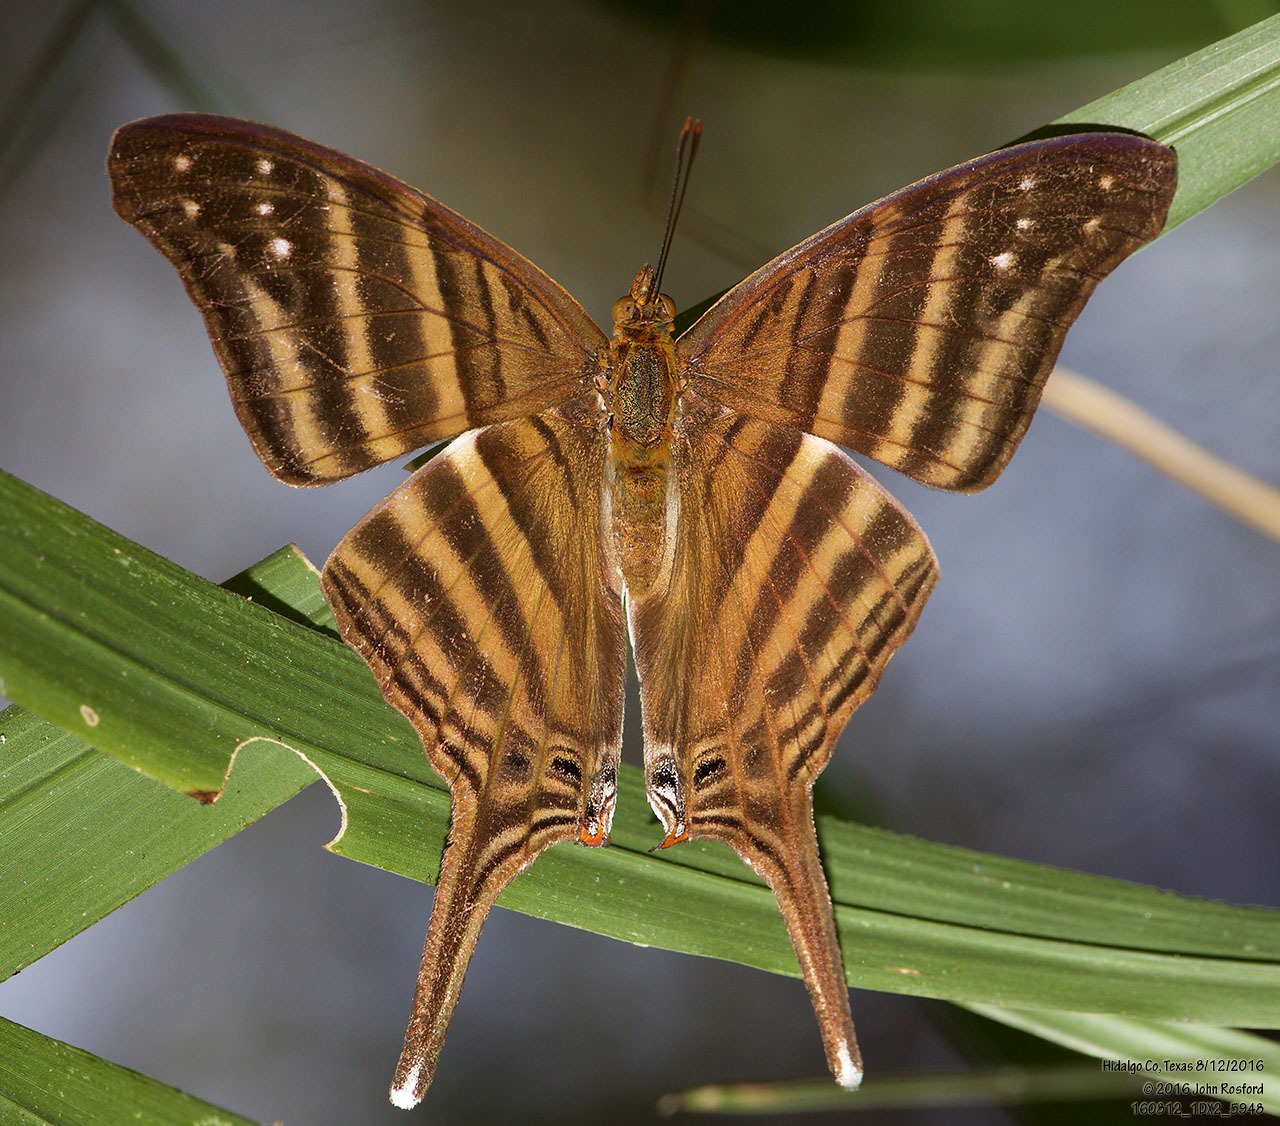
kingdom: Animalia
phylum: Arthropoda
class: Insecta
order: Lepidoptera
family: Nymphalidae
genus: Marpesia
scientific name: Marpesia chiron
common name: Many-banded daggerwing
